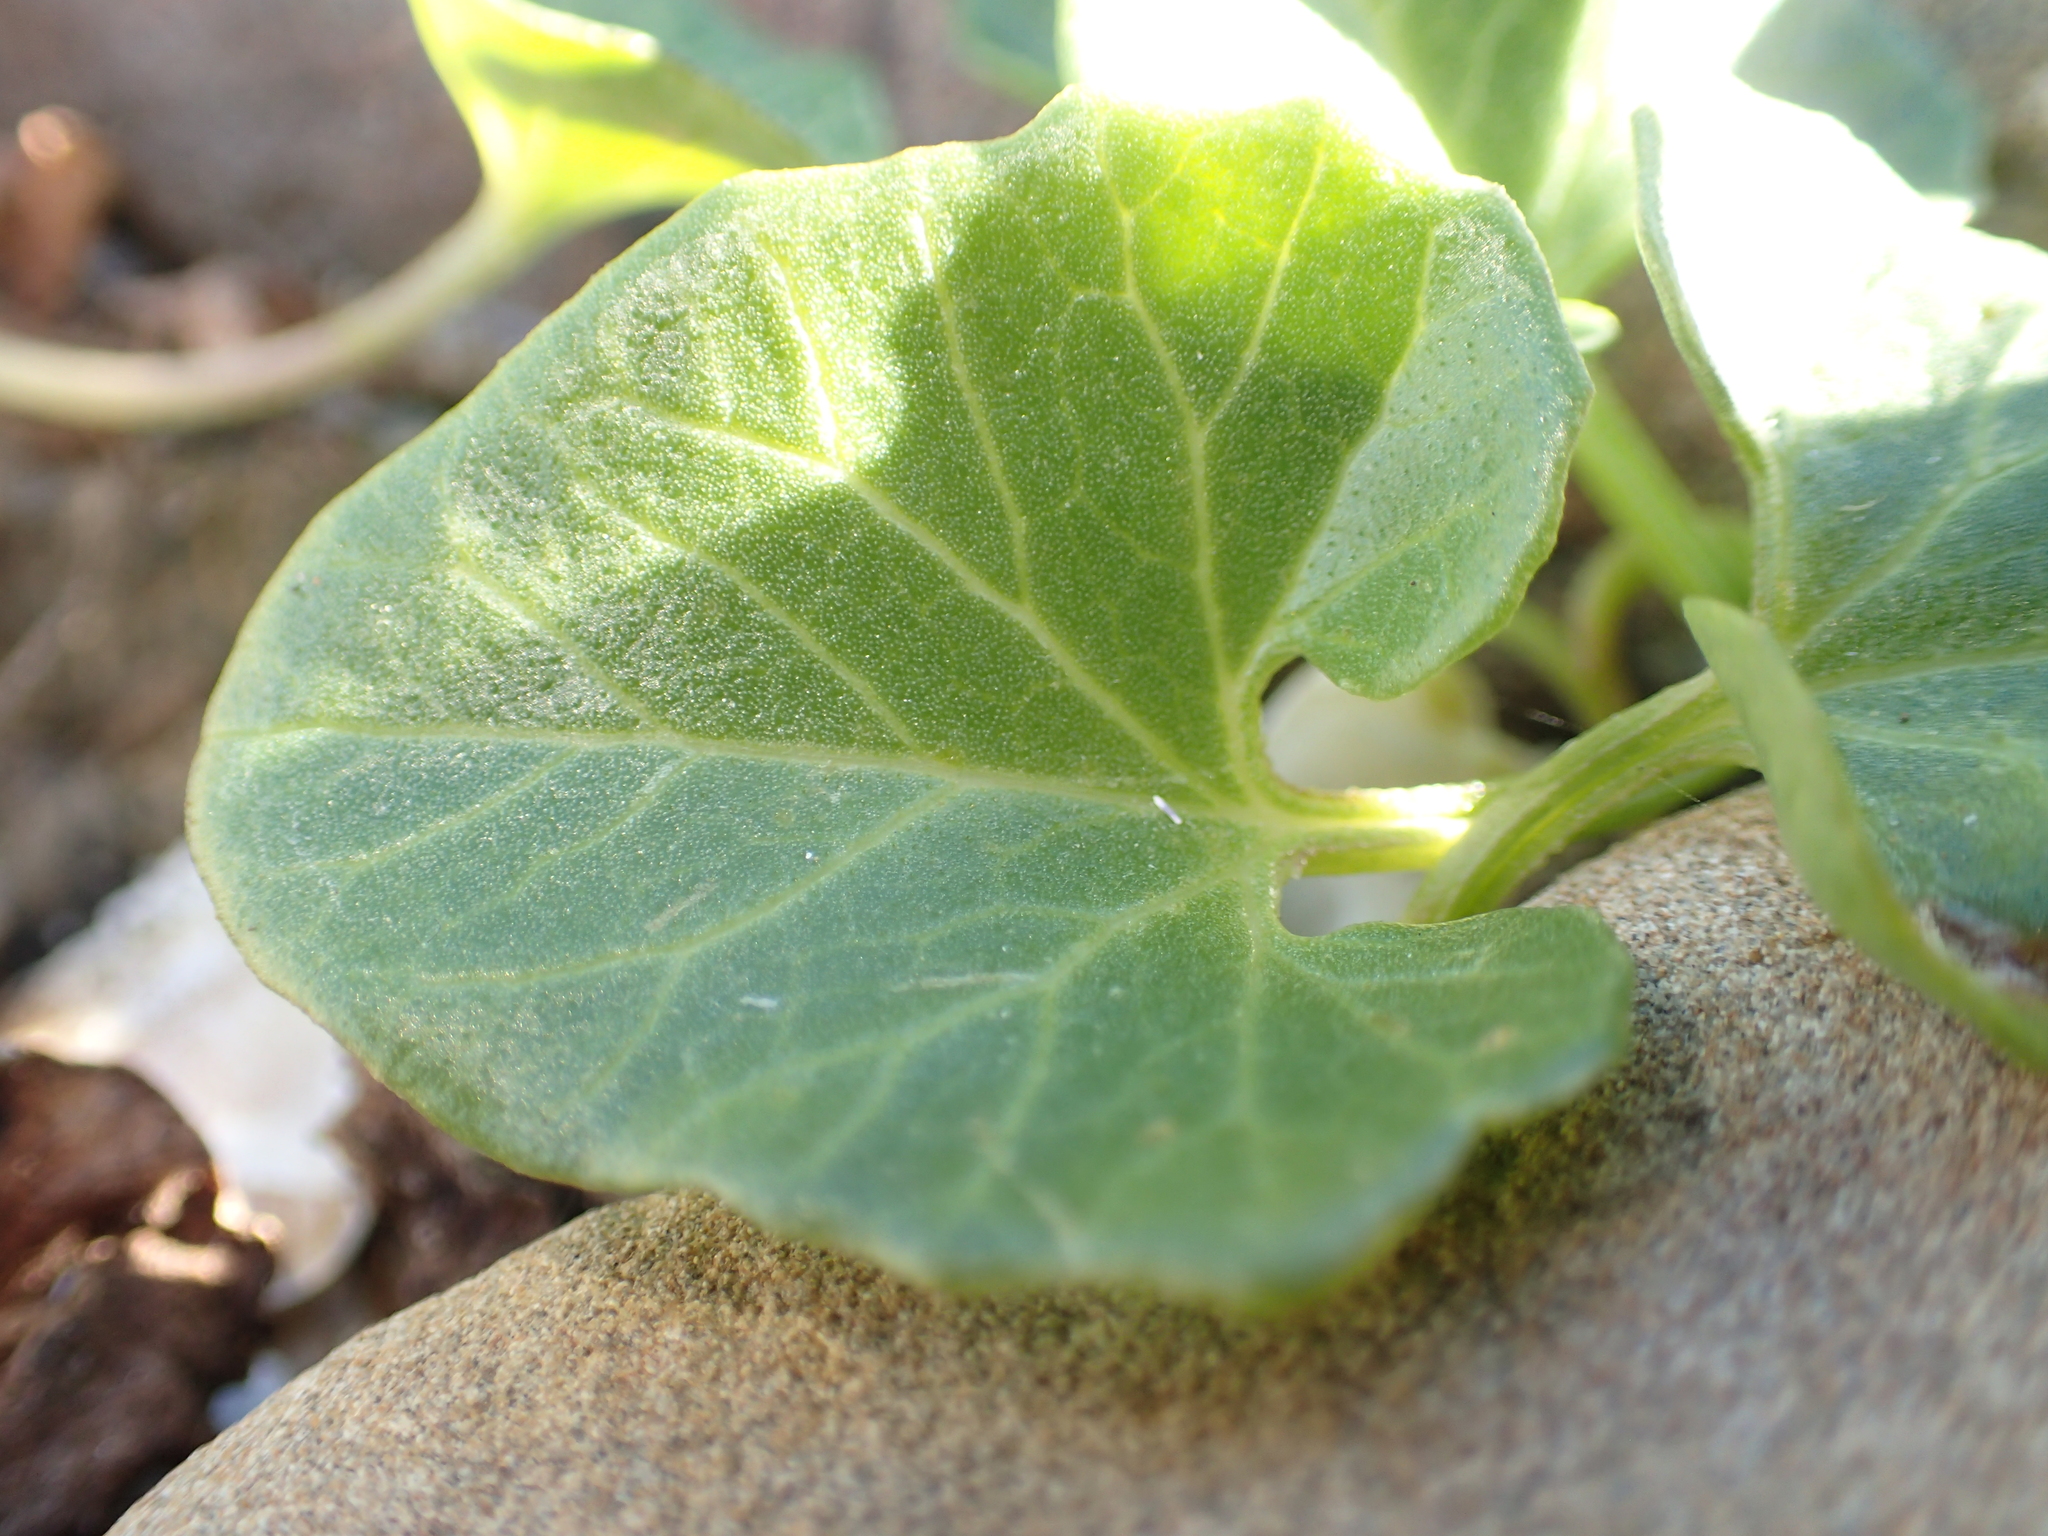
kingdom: Plantae
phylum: Tracheophyta
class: Magnoliopsida
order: Solanales
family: Convolvulaceae
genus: Calystegia
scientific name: Calystegia soldanella
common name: Sea bindweed
